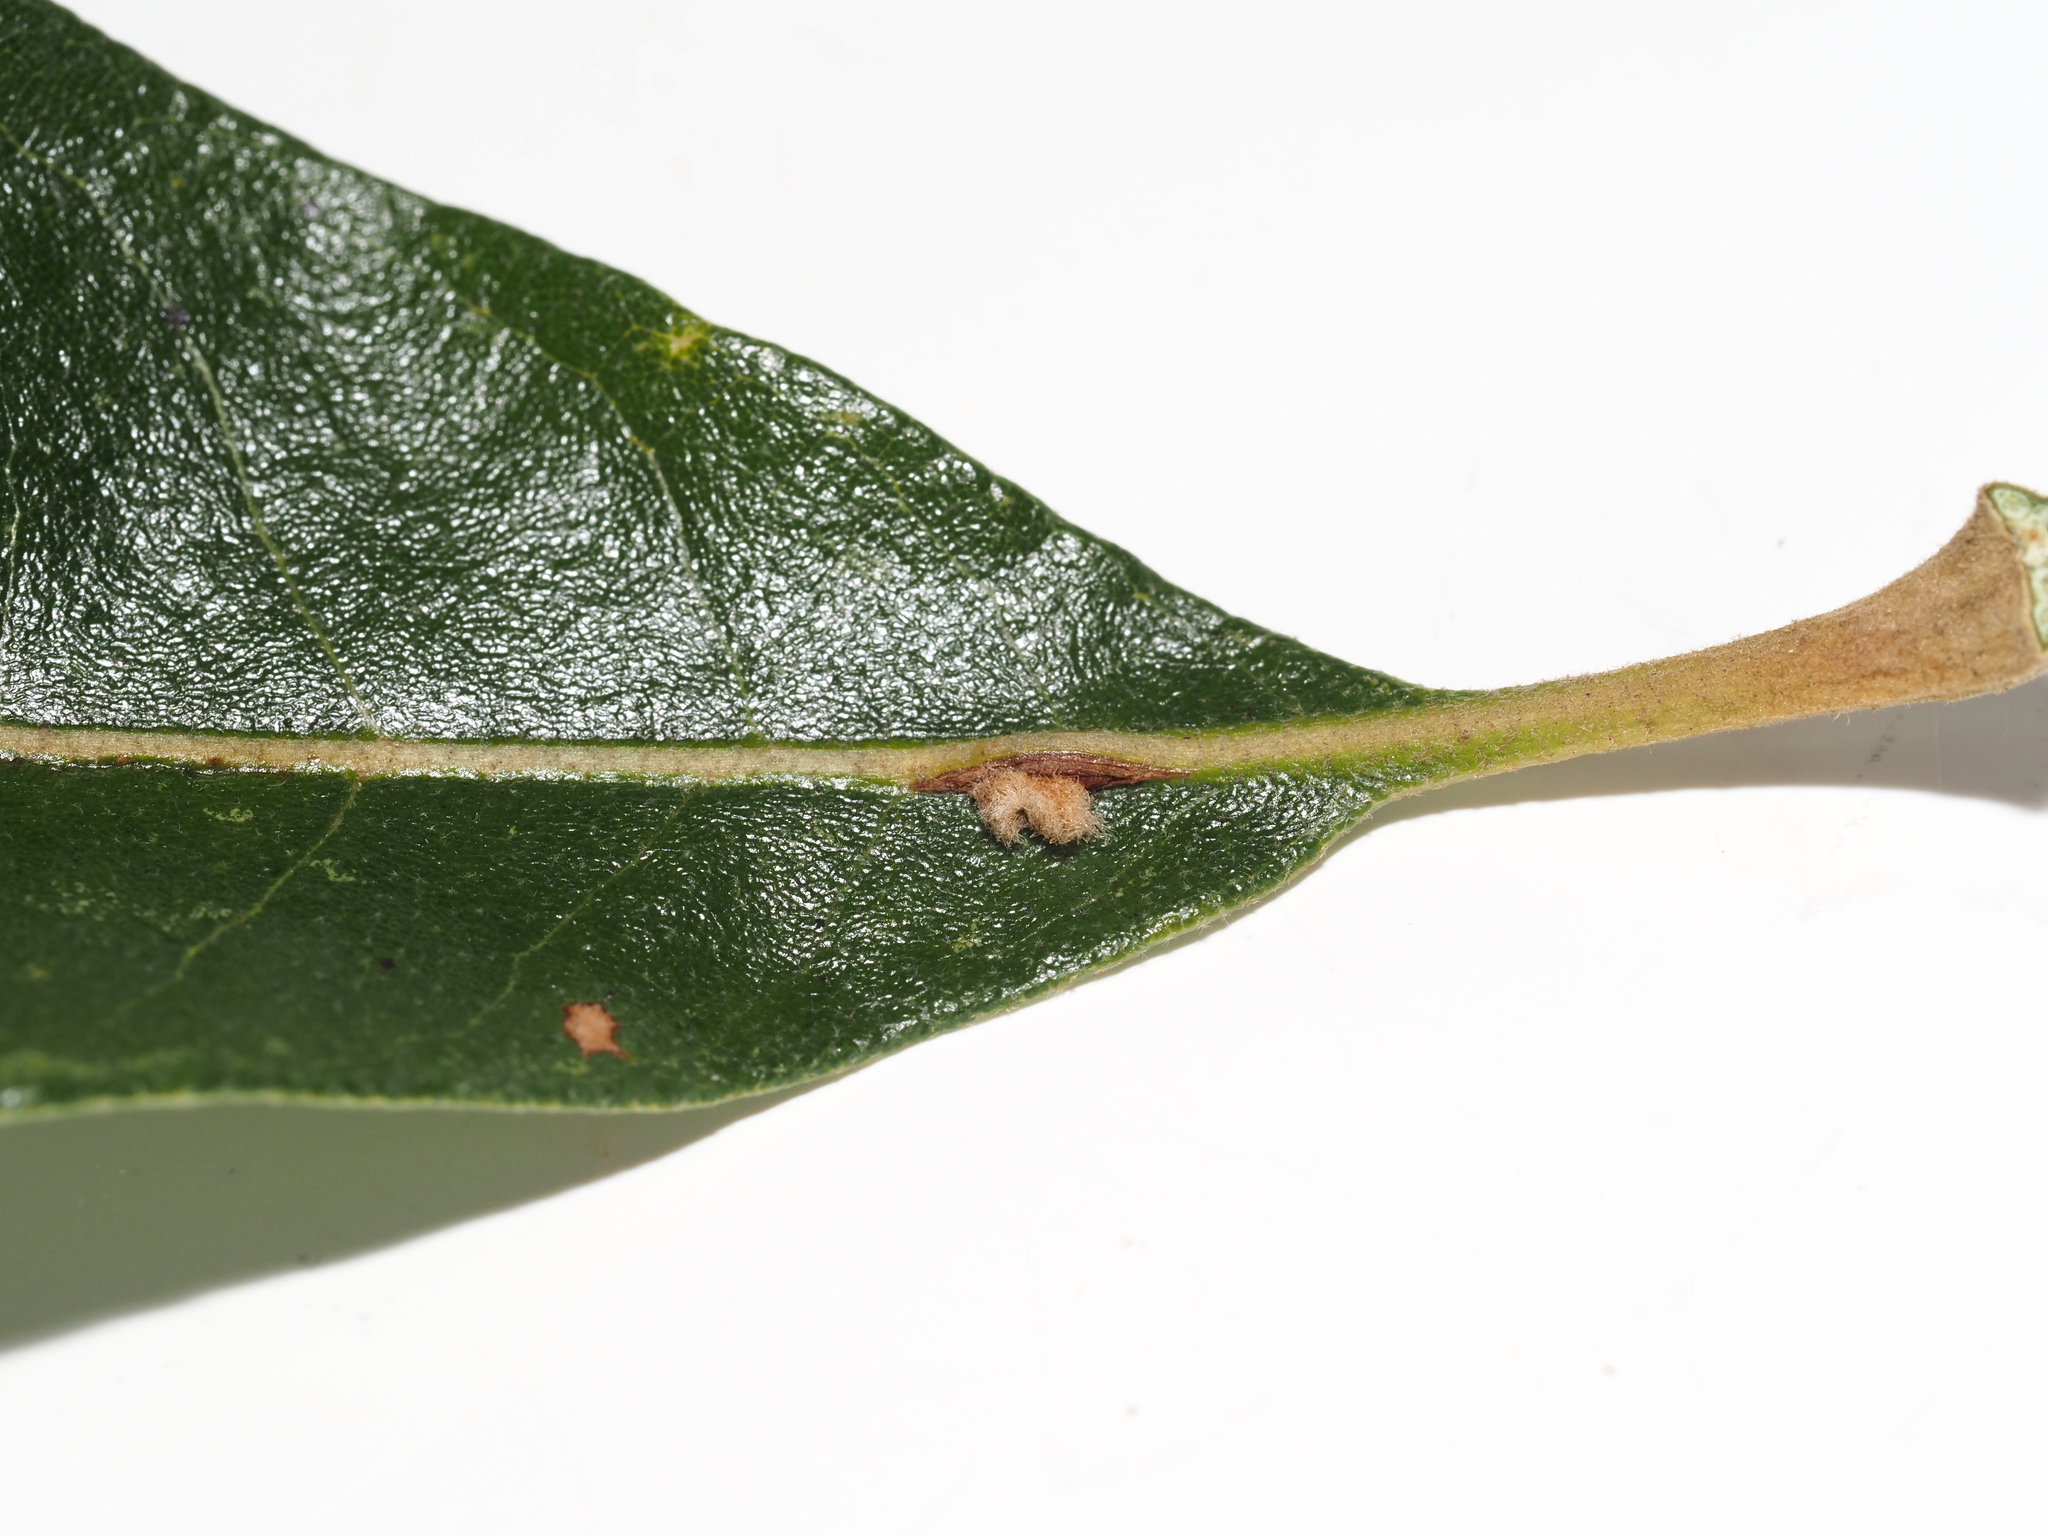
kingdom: Animalia
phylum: Arthropoda
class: Insecta
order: Hymenoptera
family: Cynipidae
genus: Andricus
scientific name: Andricus Druon pattoni
